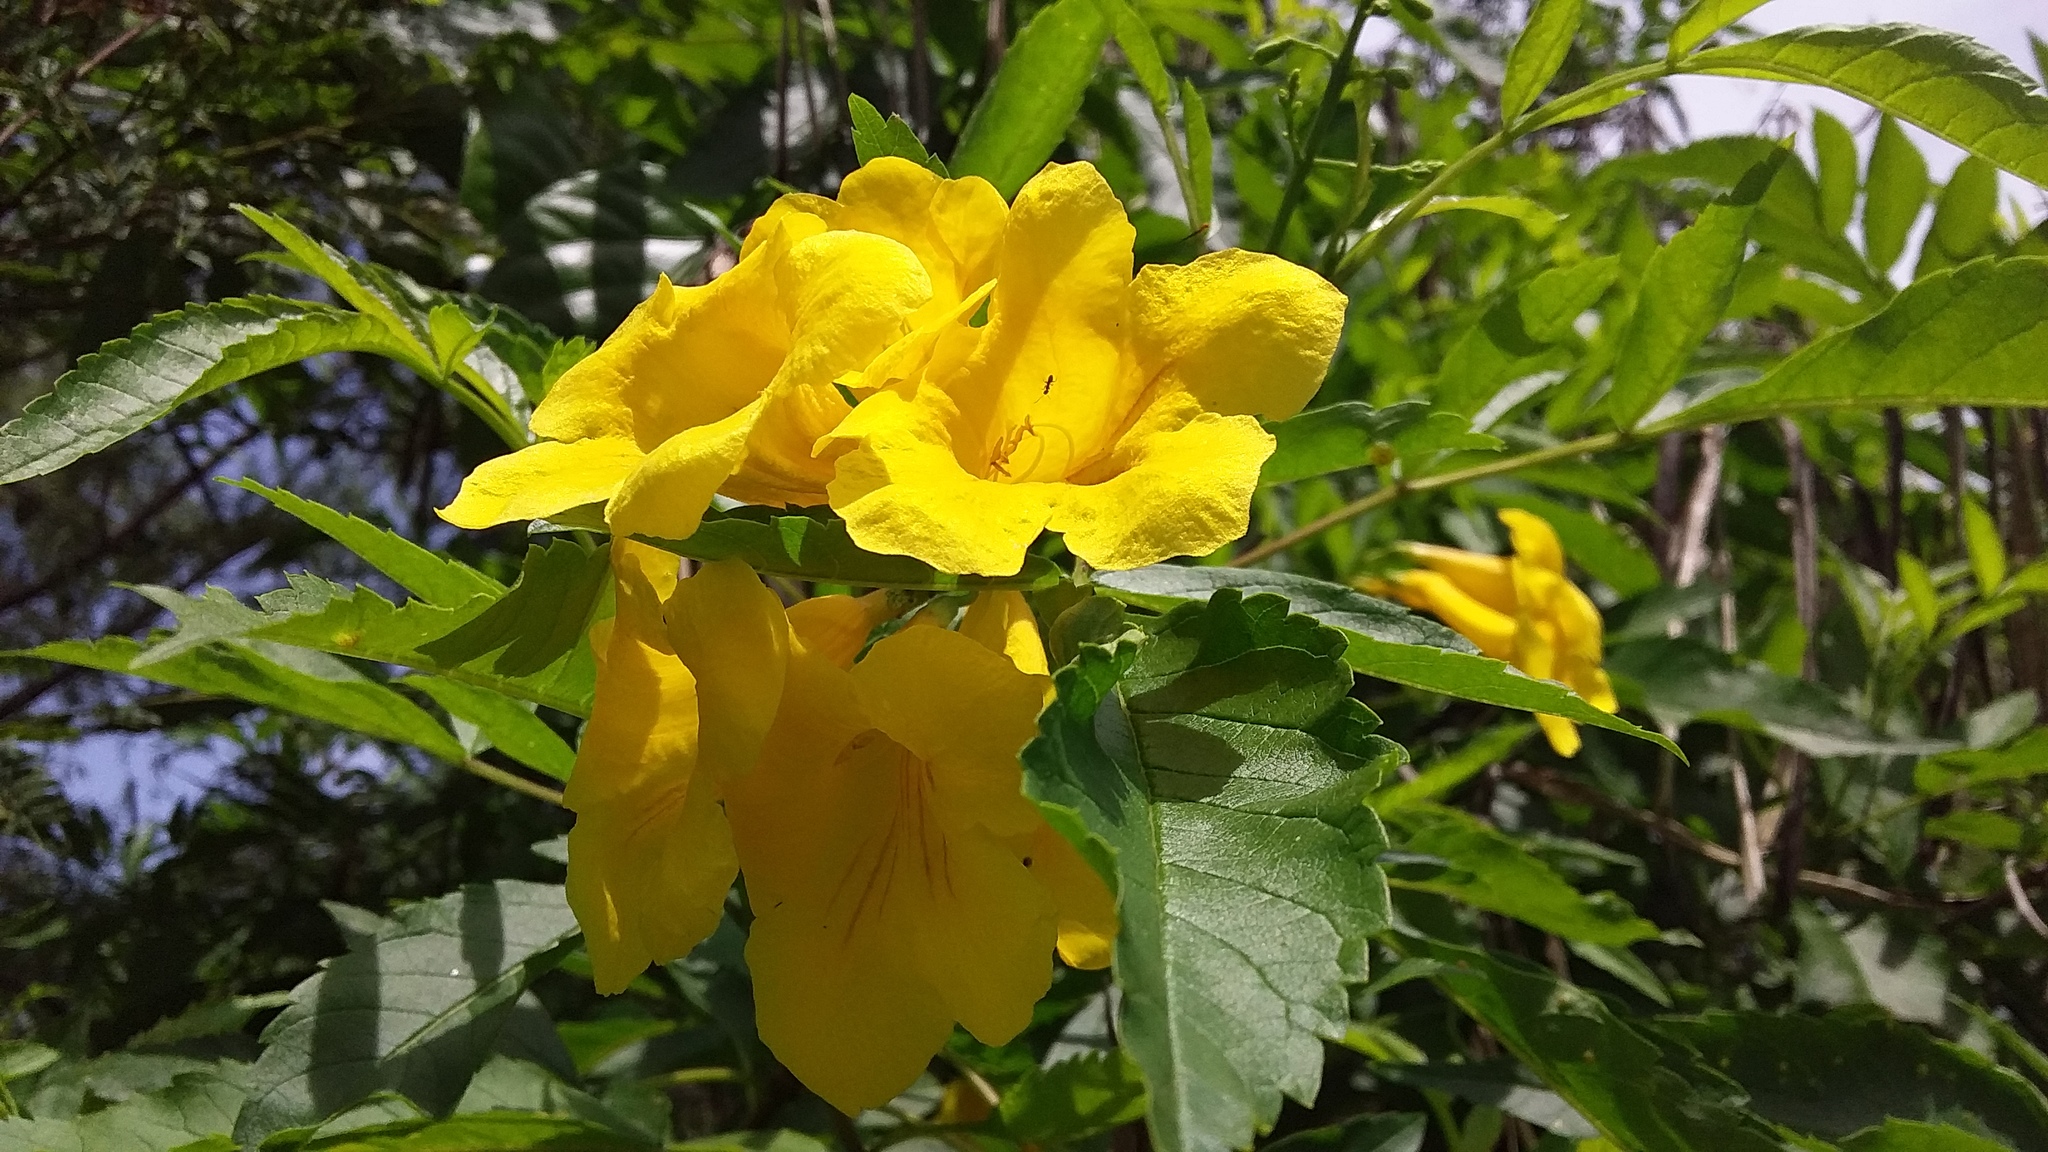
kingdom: Plantae
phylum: Tracheophyta
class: Magnoliopsida
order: Lamiales
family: Bignoniaceae
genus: Tecoma
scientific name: Tecoma stans
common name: Yellow trumpetbush
